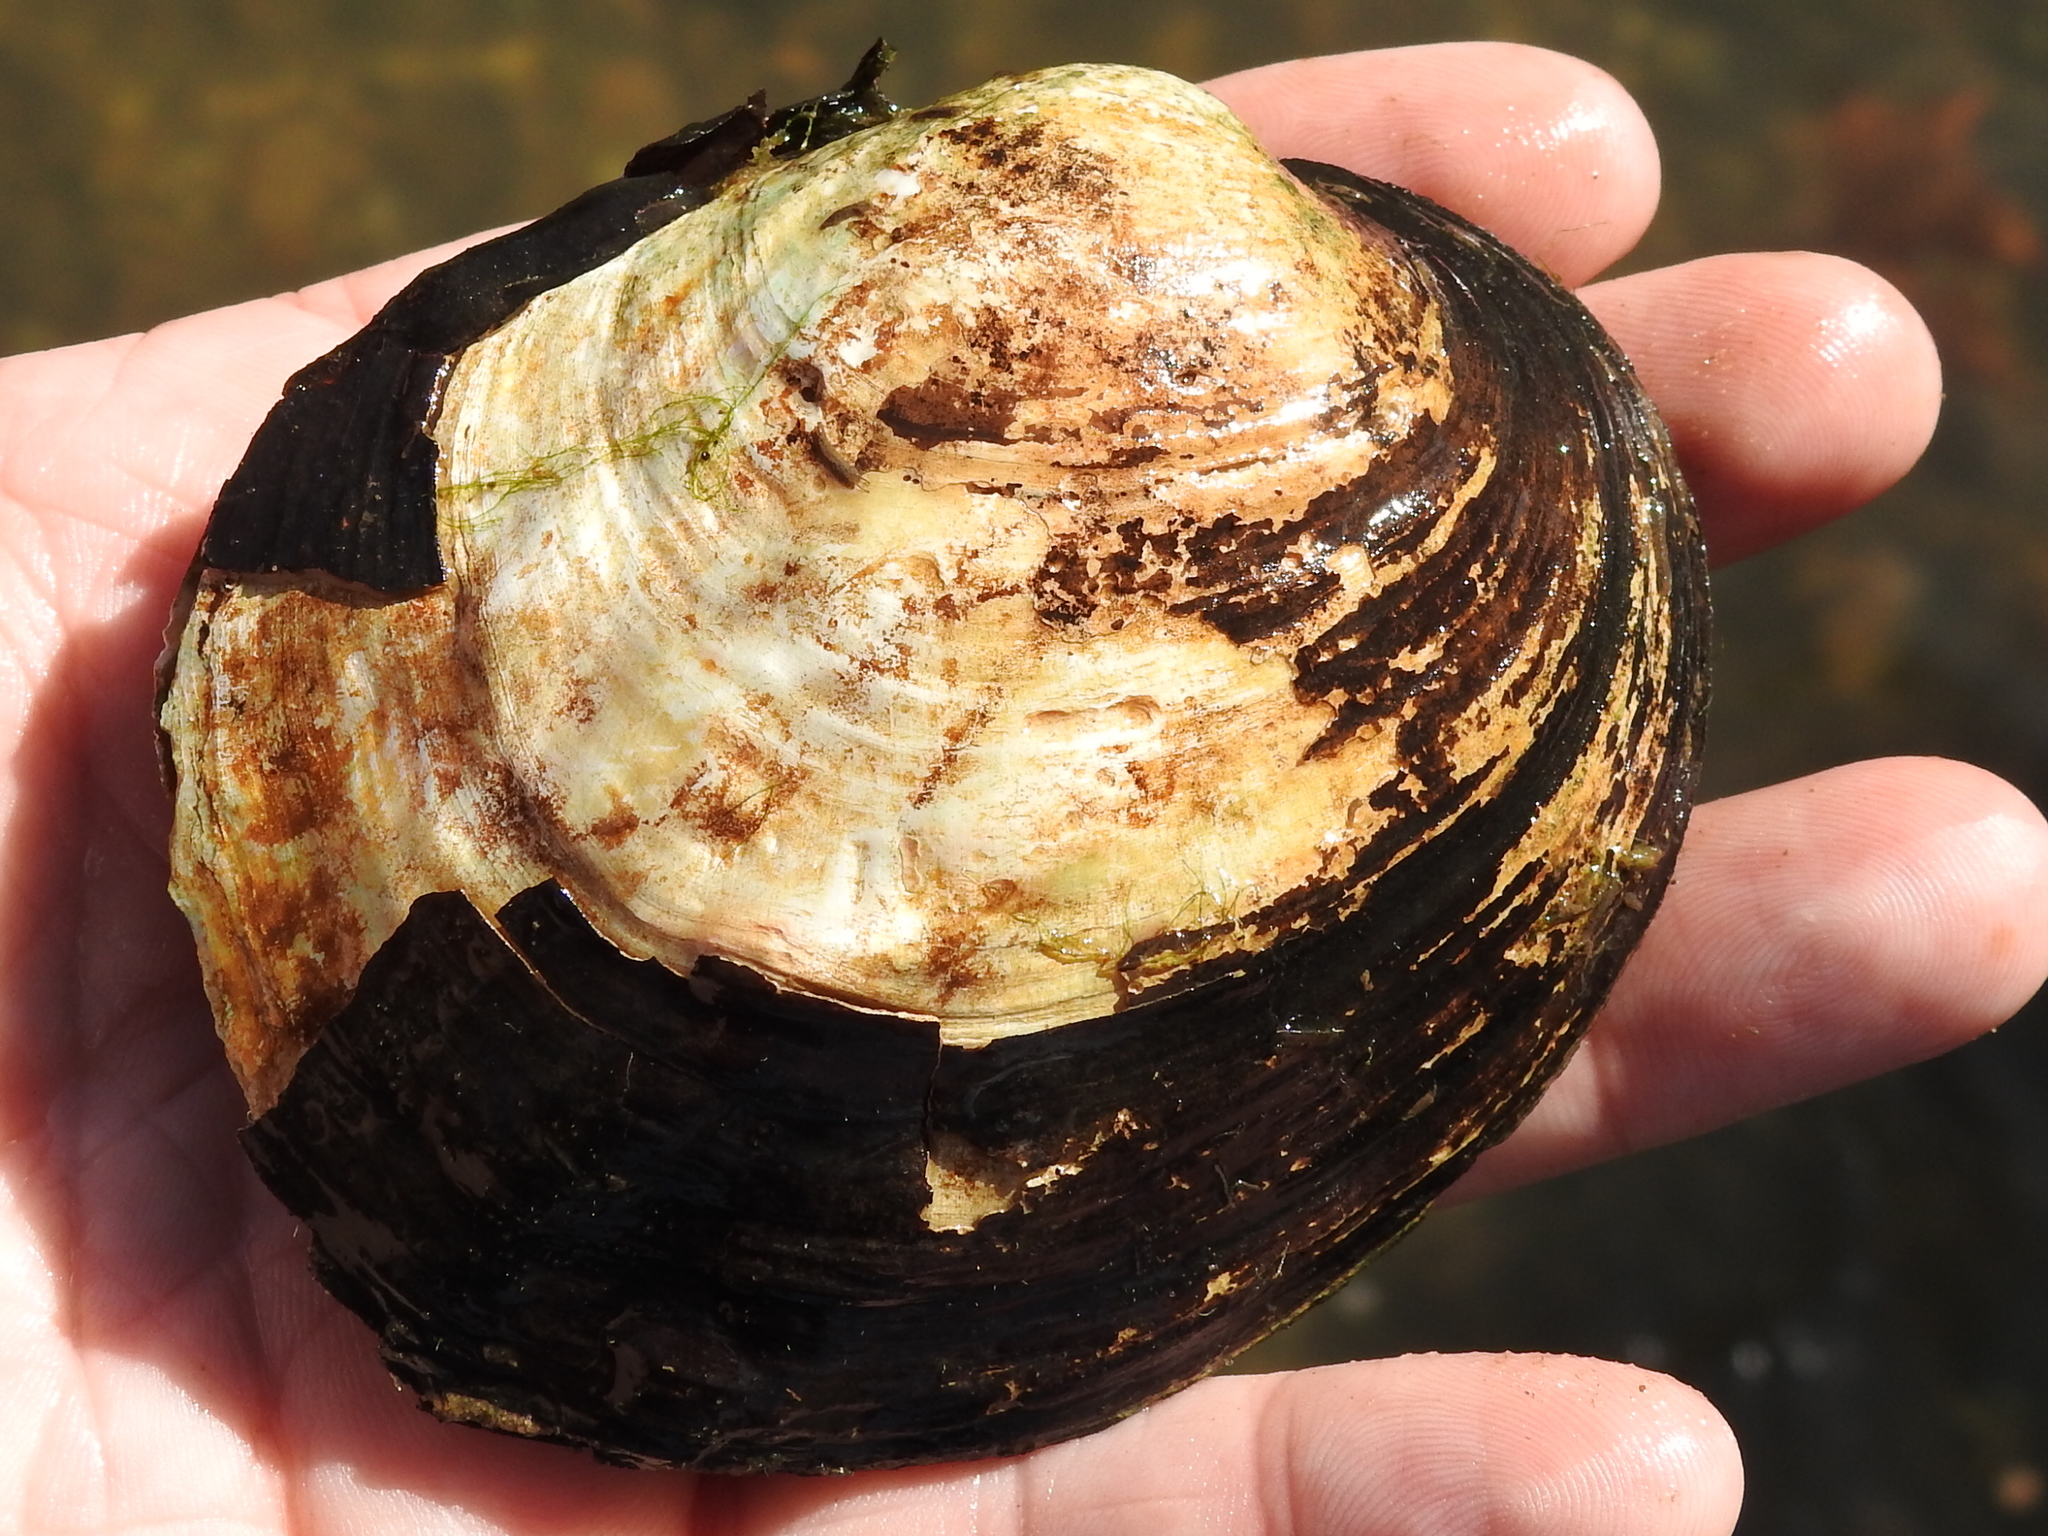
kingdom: Animalia
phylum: Mollusca
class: Bivalvia
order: Unionida
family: Unionidae
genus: Amblema
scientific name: Amblema plicata
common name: Threeridge
